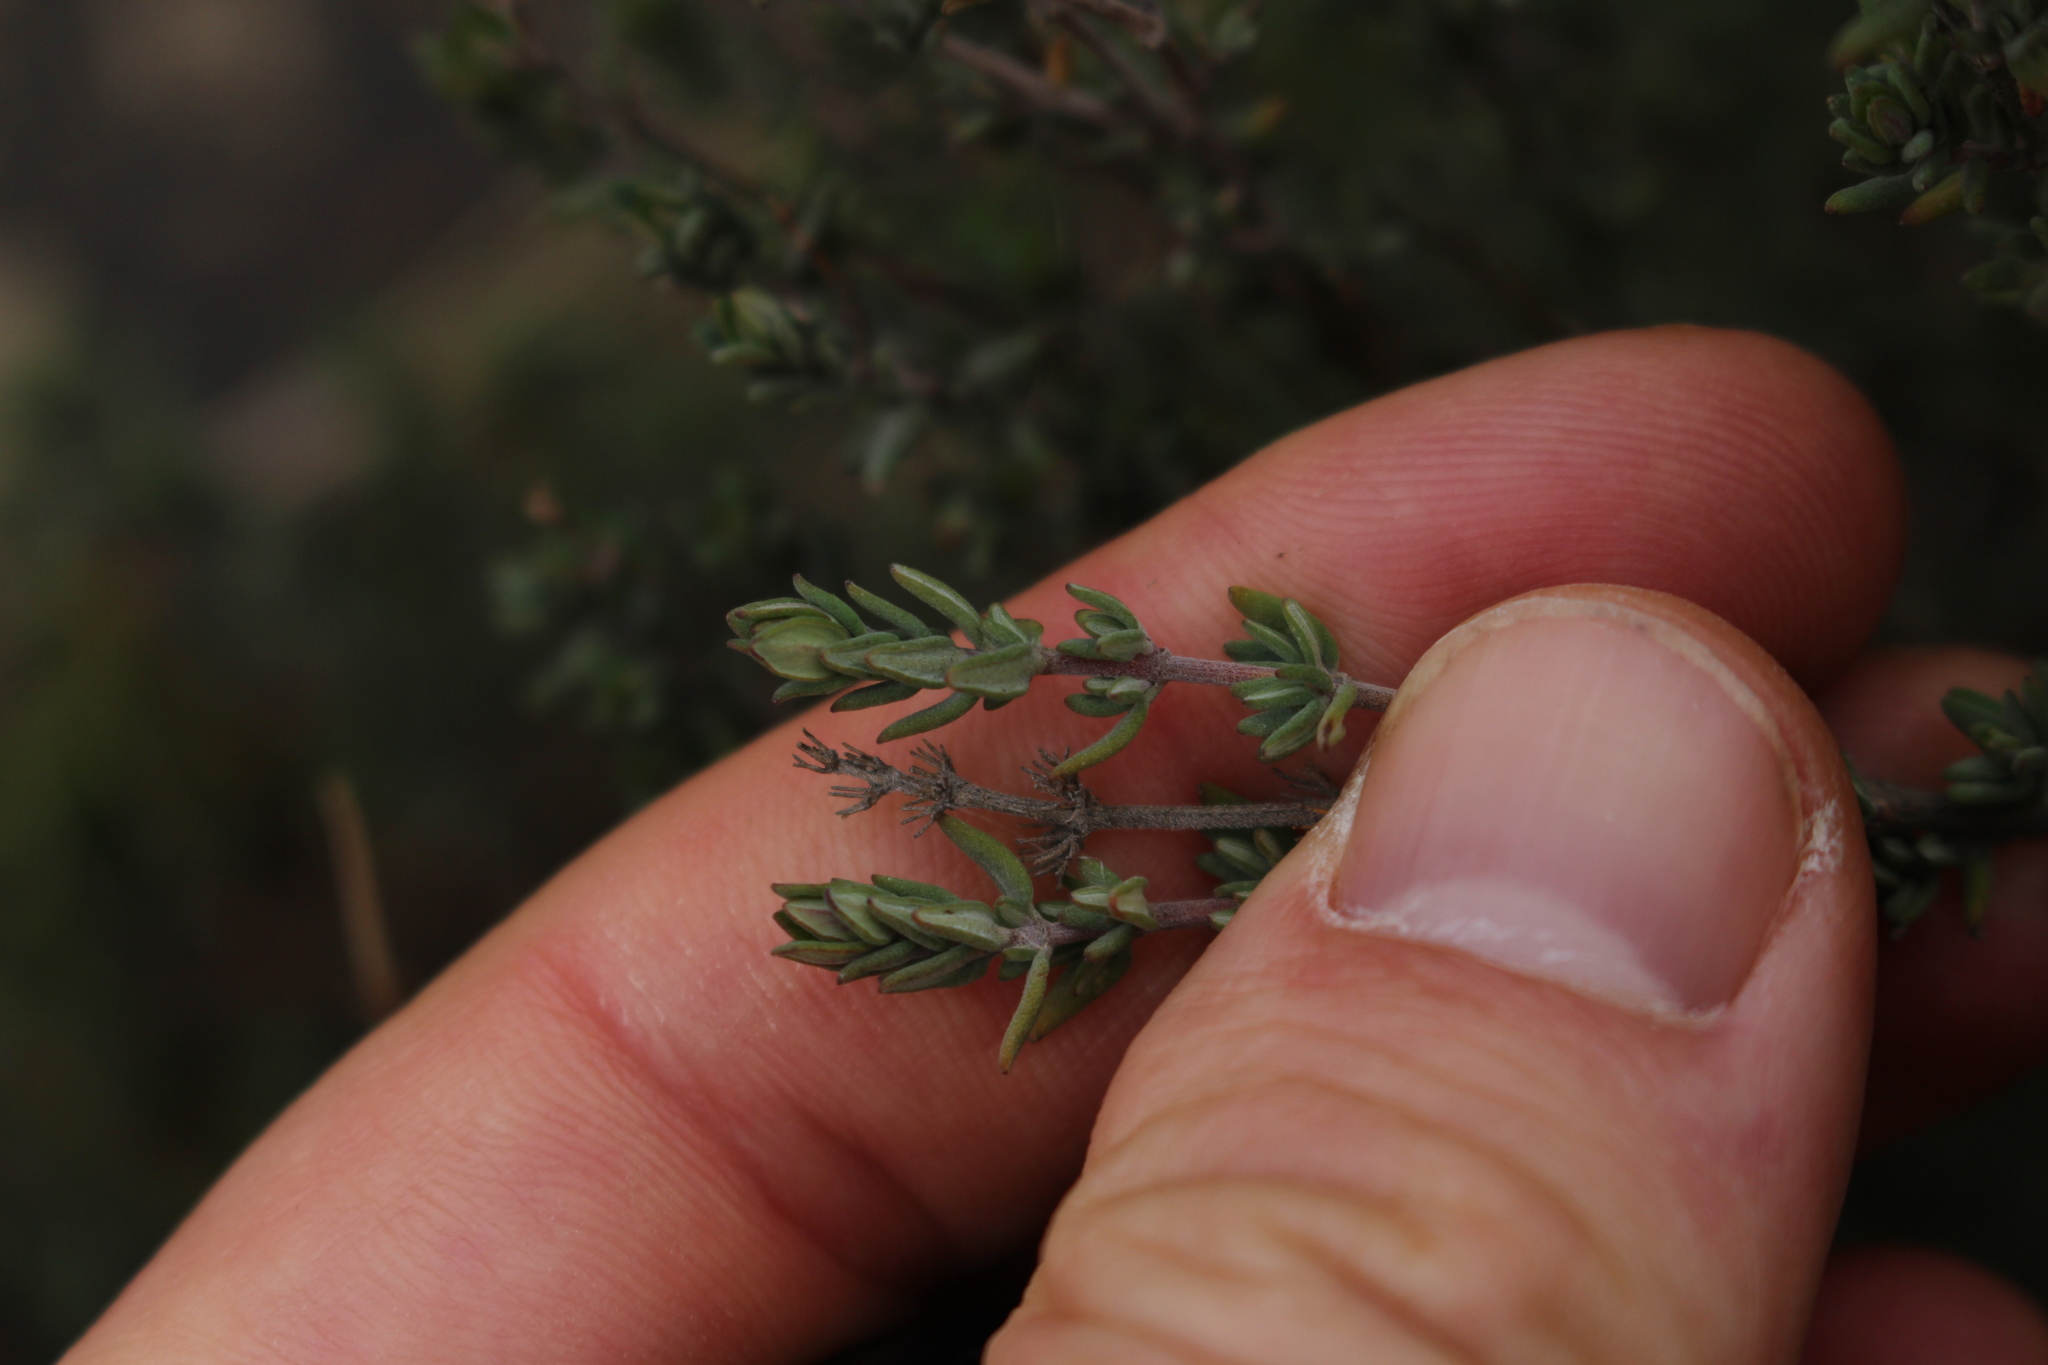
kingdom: Plantae
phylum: Tracheophyta
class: Magnoliopsida
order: Lamiales
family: Lamiaceae
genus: Thymus
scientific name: Thymus vulgaris
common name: Garden thyme
